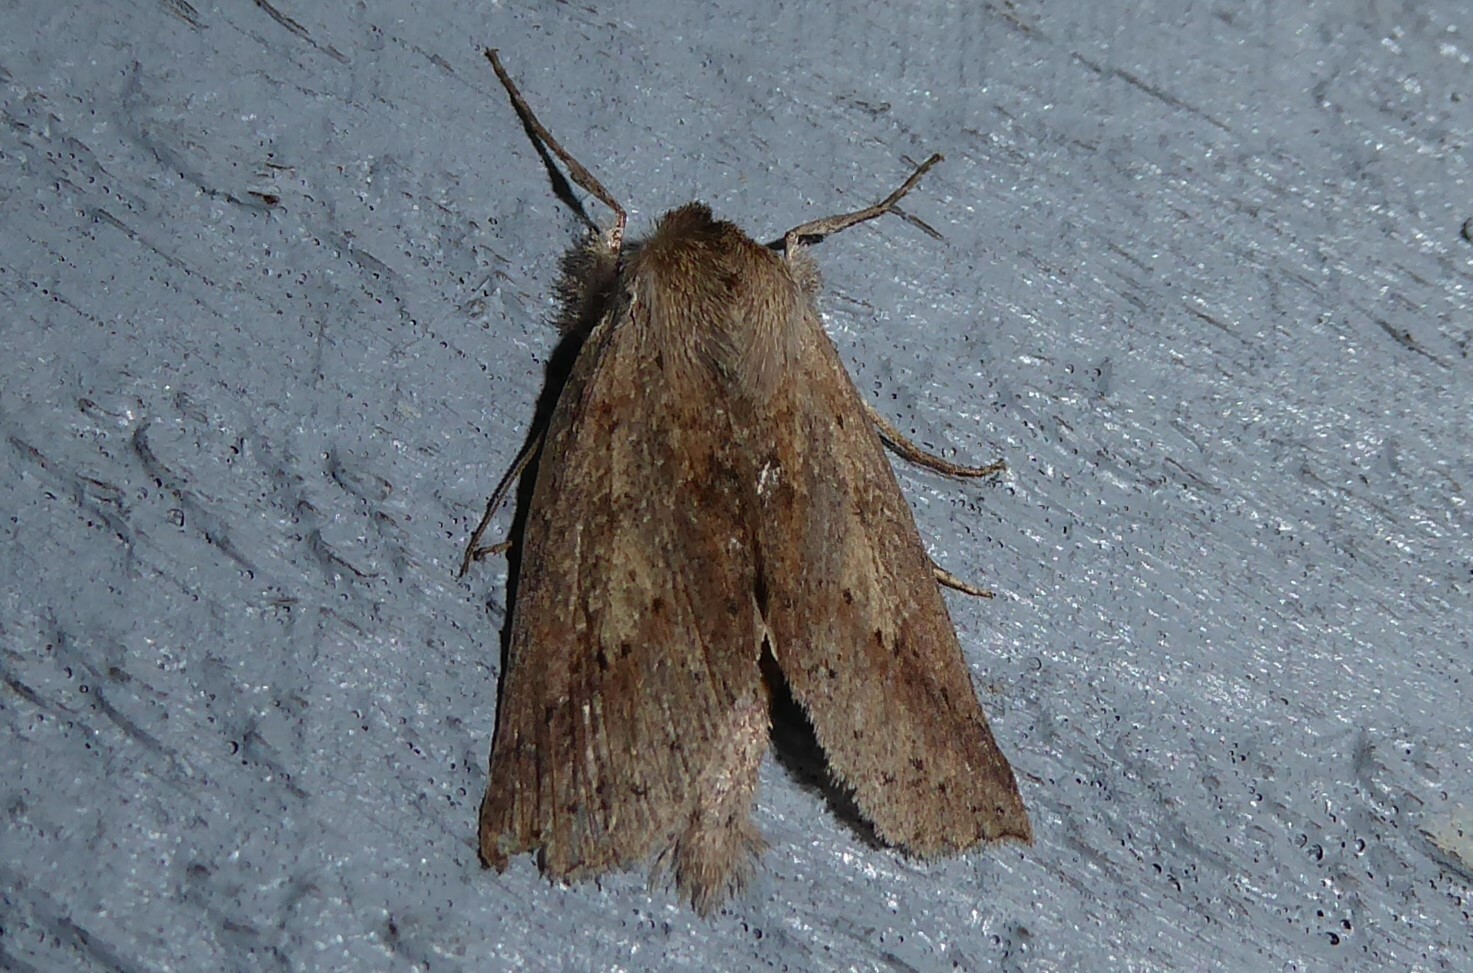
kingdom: Animalia
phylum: Arthropoda
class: Insecta
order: Lepidoptera
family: Geometridae
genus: Declana
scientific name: Declana leptomera
